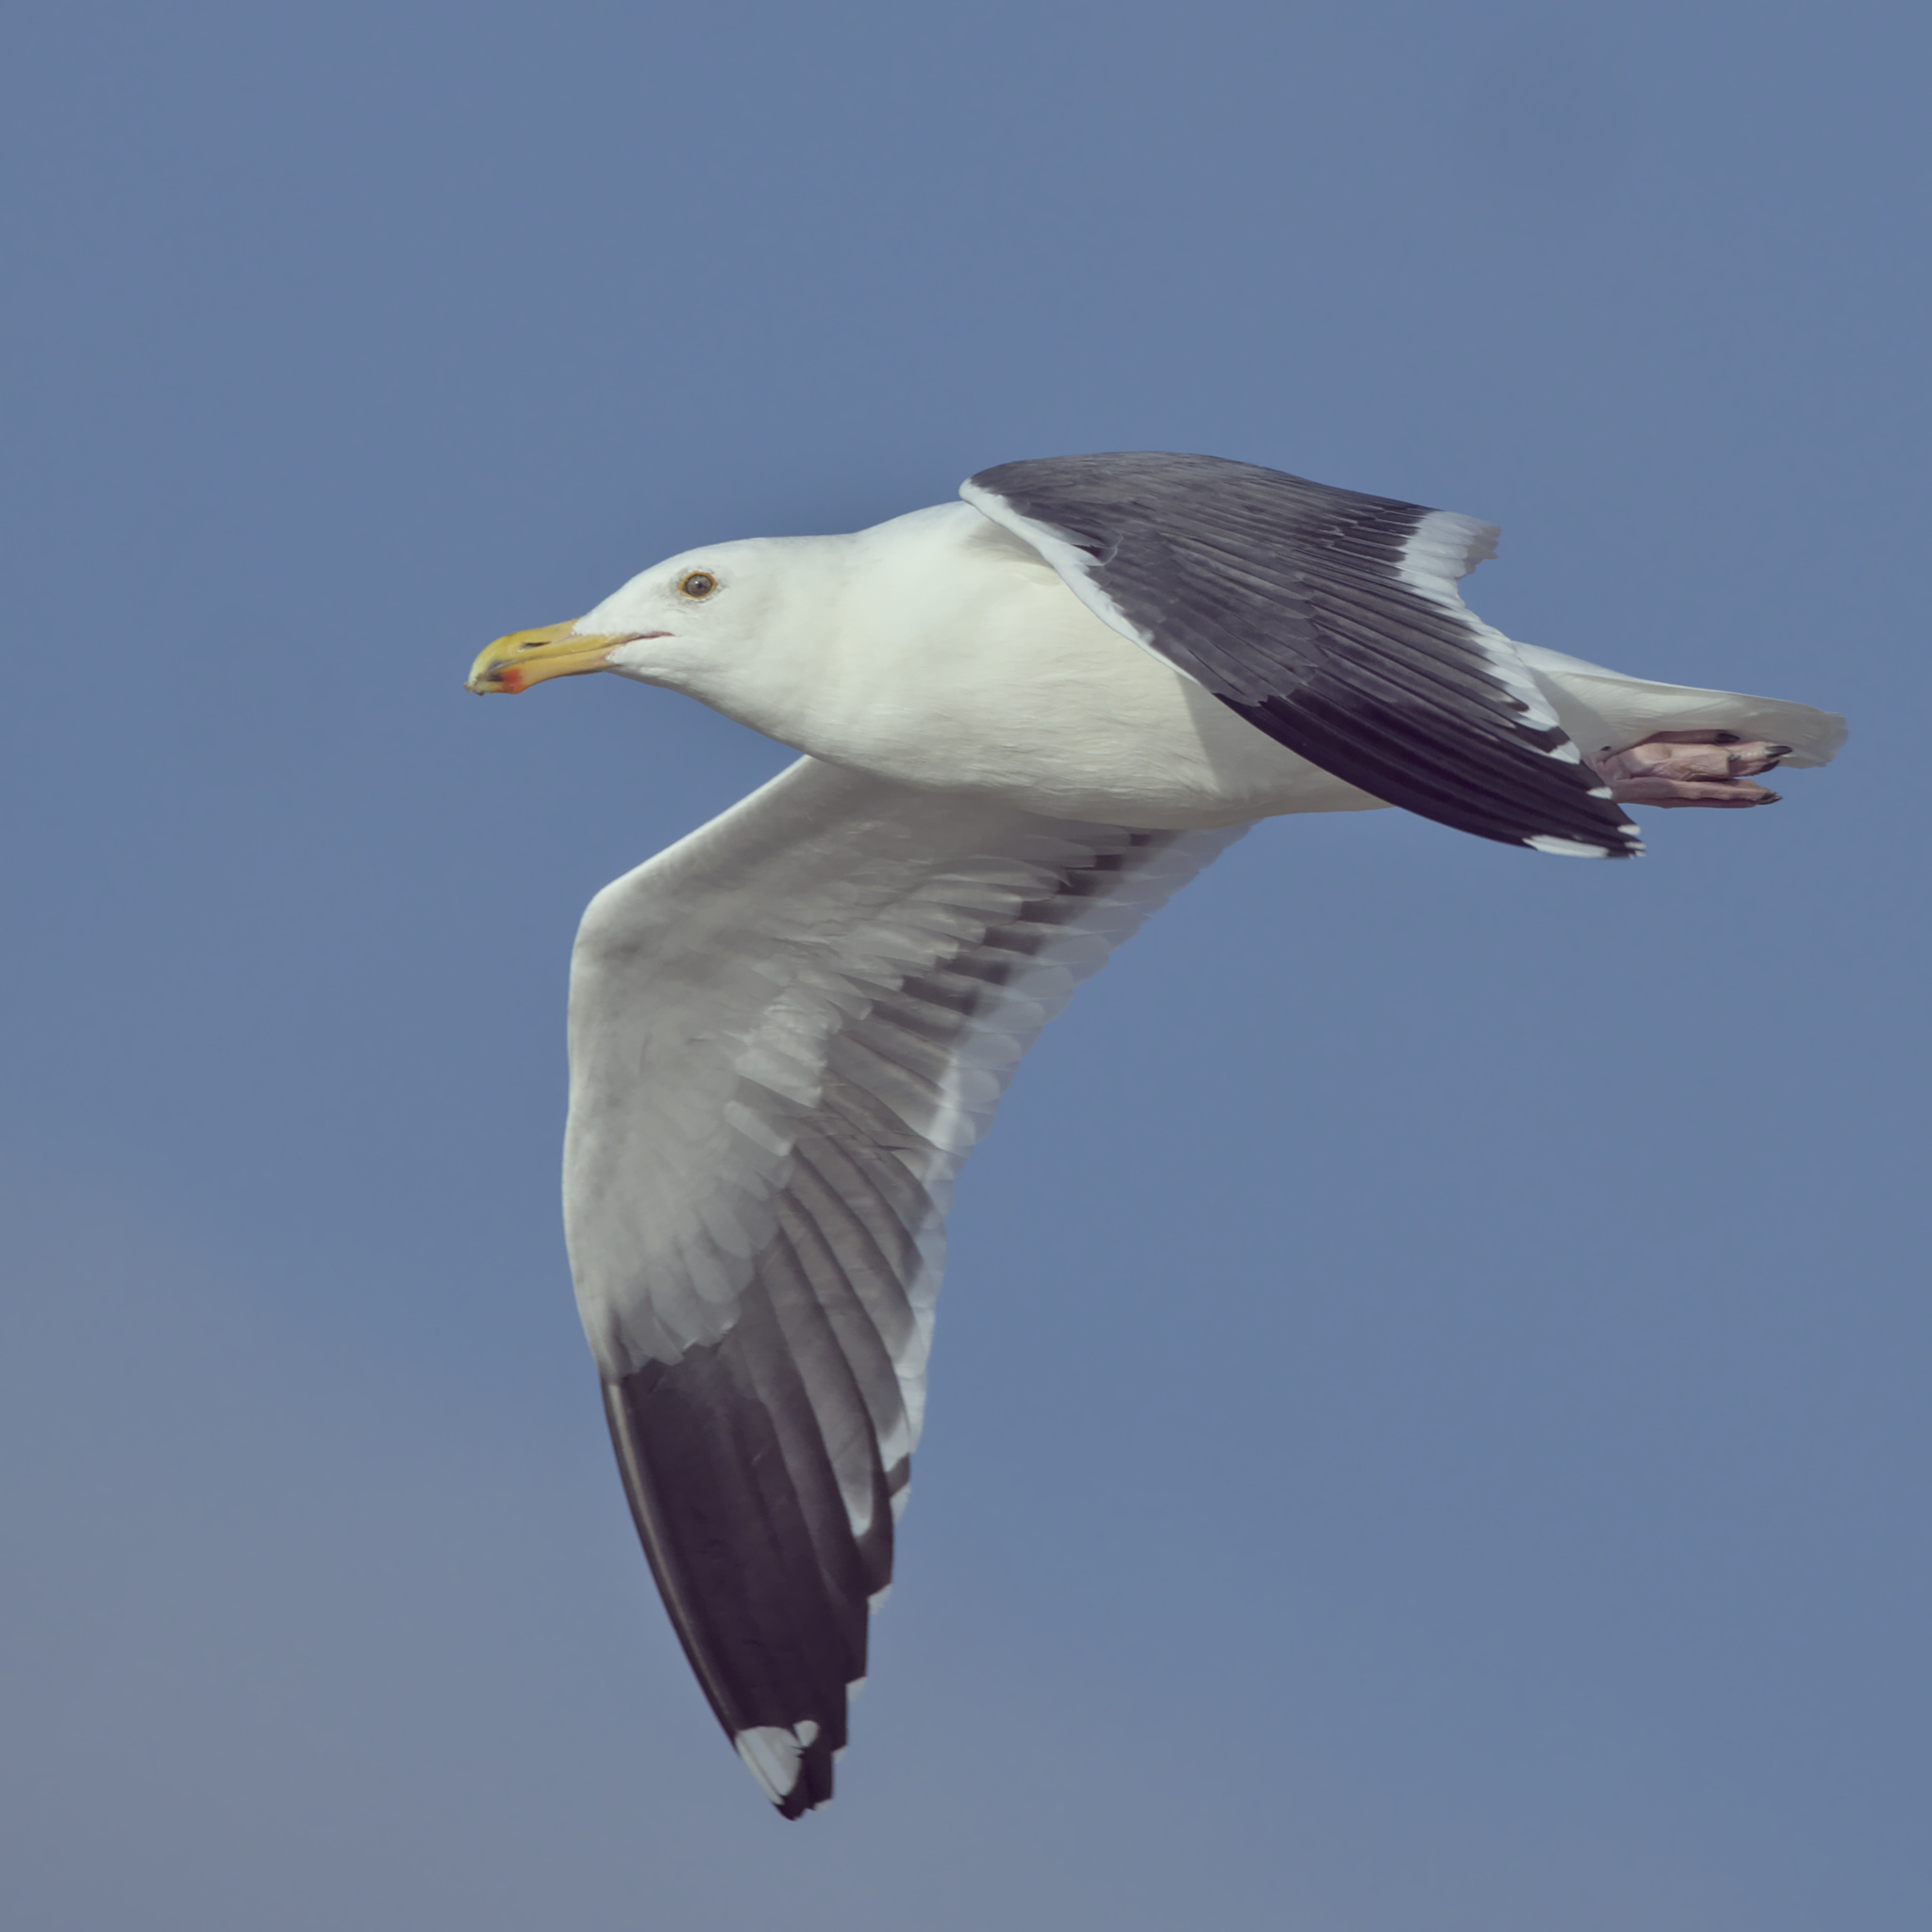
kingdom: Animalia
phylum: Chordata
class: Aves
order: Charadriiformes
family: Laridae
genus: Larus
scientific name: Larus occidentalis
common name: Western gull
